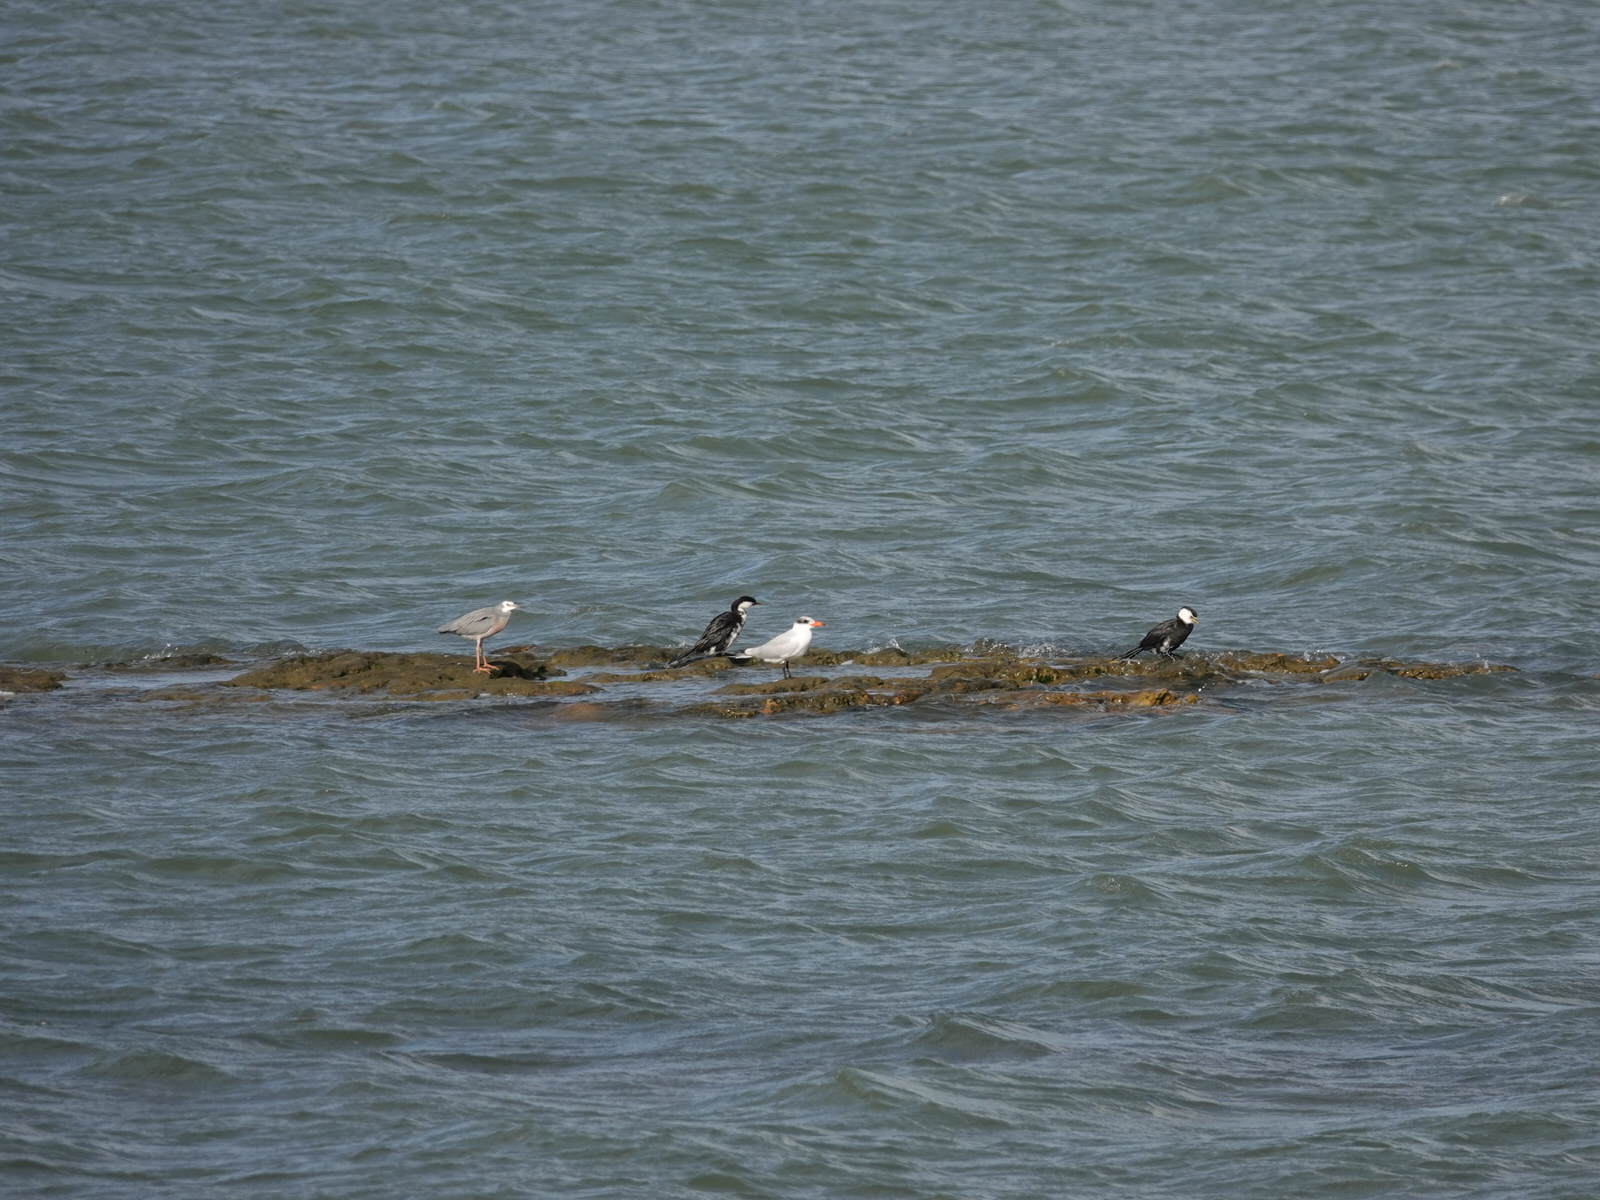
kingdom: Animalia
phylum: Chordata
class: Aves
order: Suliformes
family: Phalacrocoracidae
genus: Microcarbo
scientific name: Microcarbo melanoleucos
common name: Little pied cormorant
